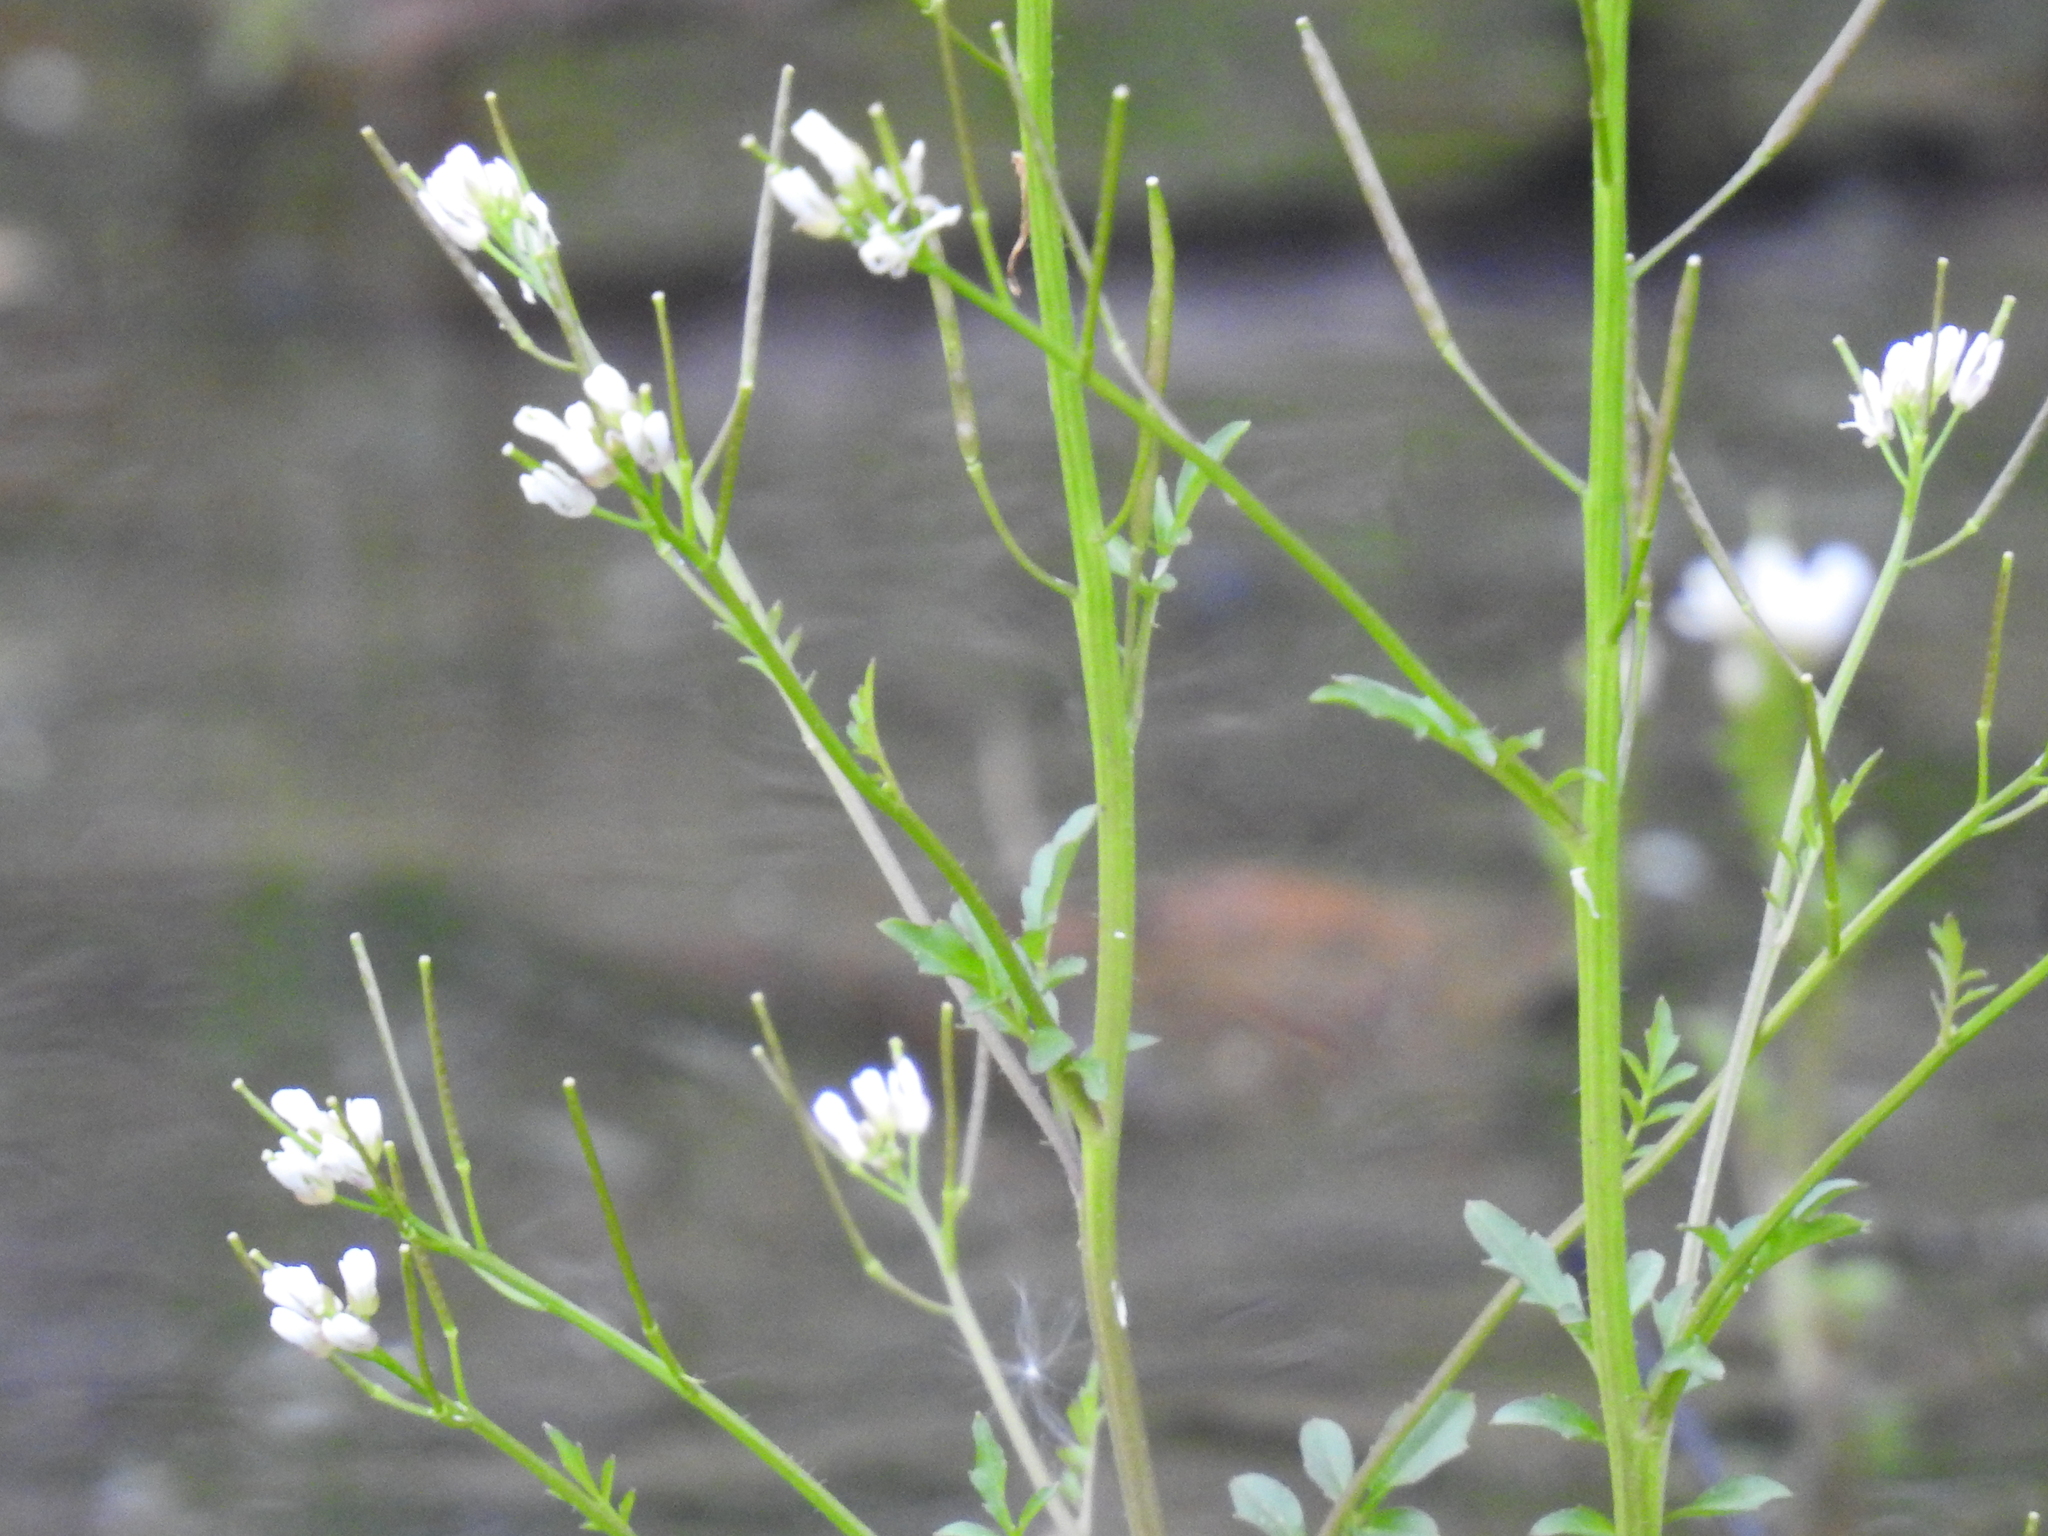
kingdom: Plantae
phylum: Tracheophyta
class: Magnoliopsida
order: Brassicales
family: Brassicaceae
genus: Cardamine
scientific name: Cardamine pensylvanica
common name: Pennsylvania bittercress
